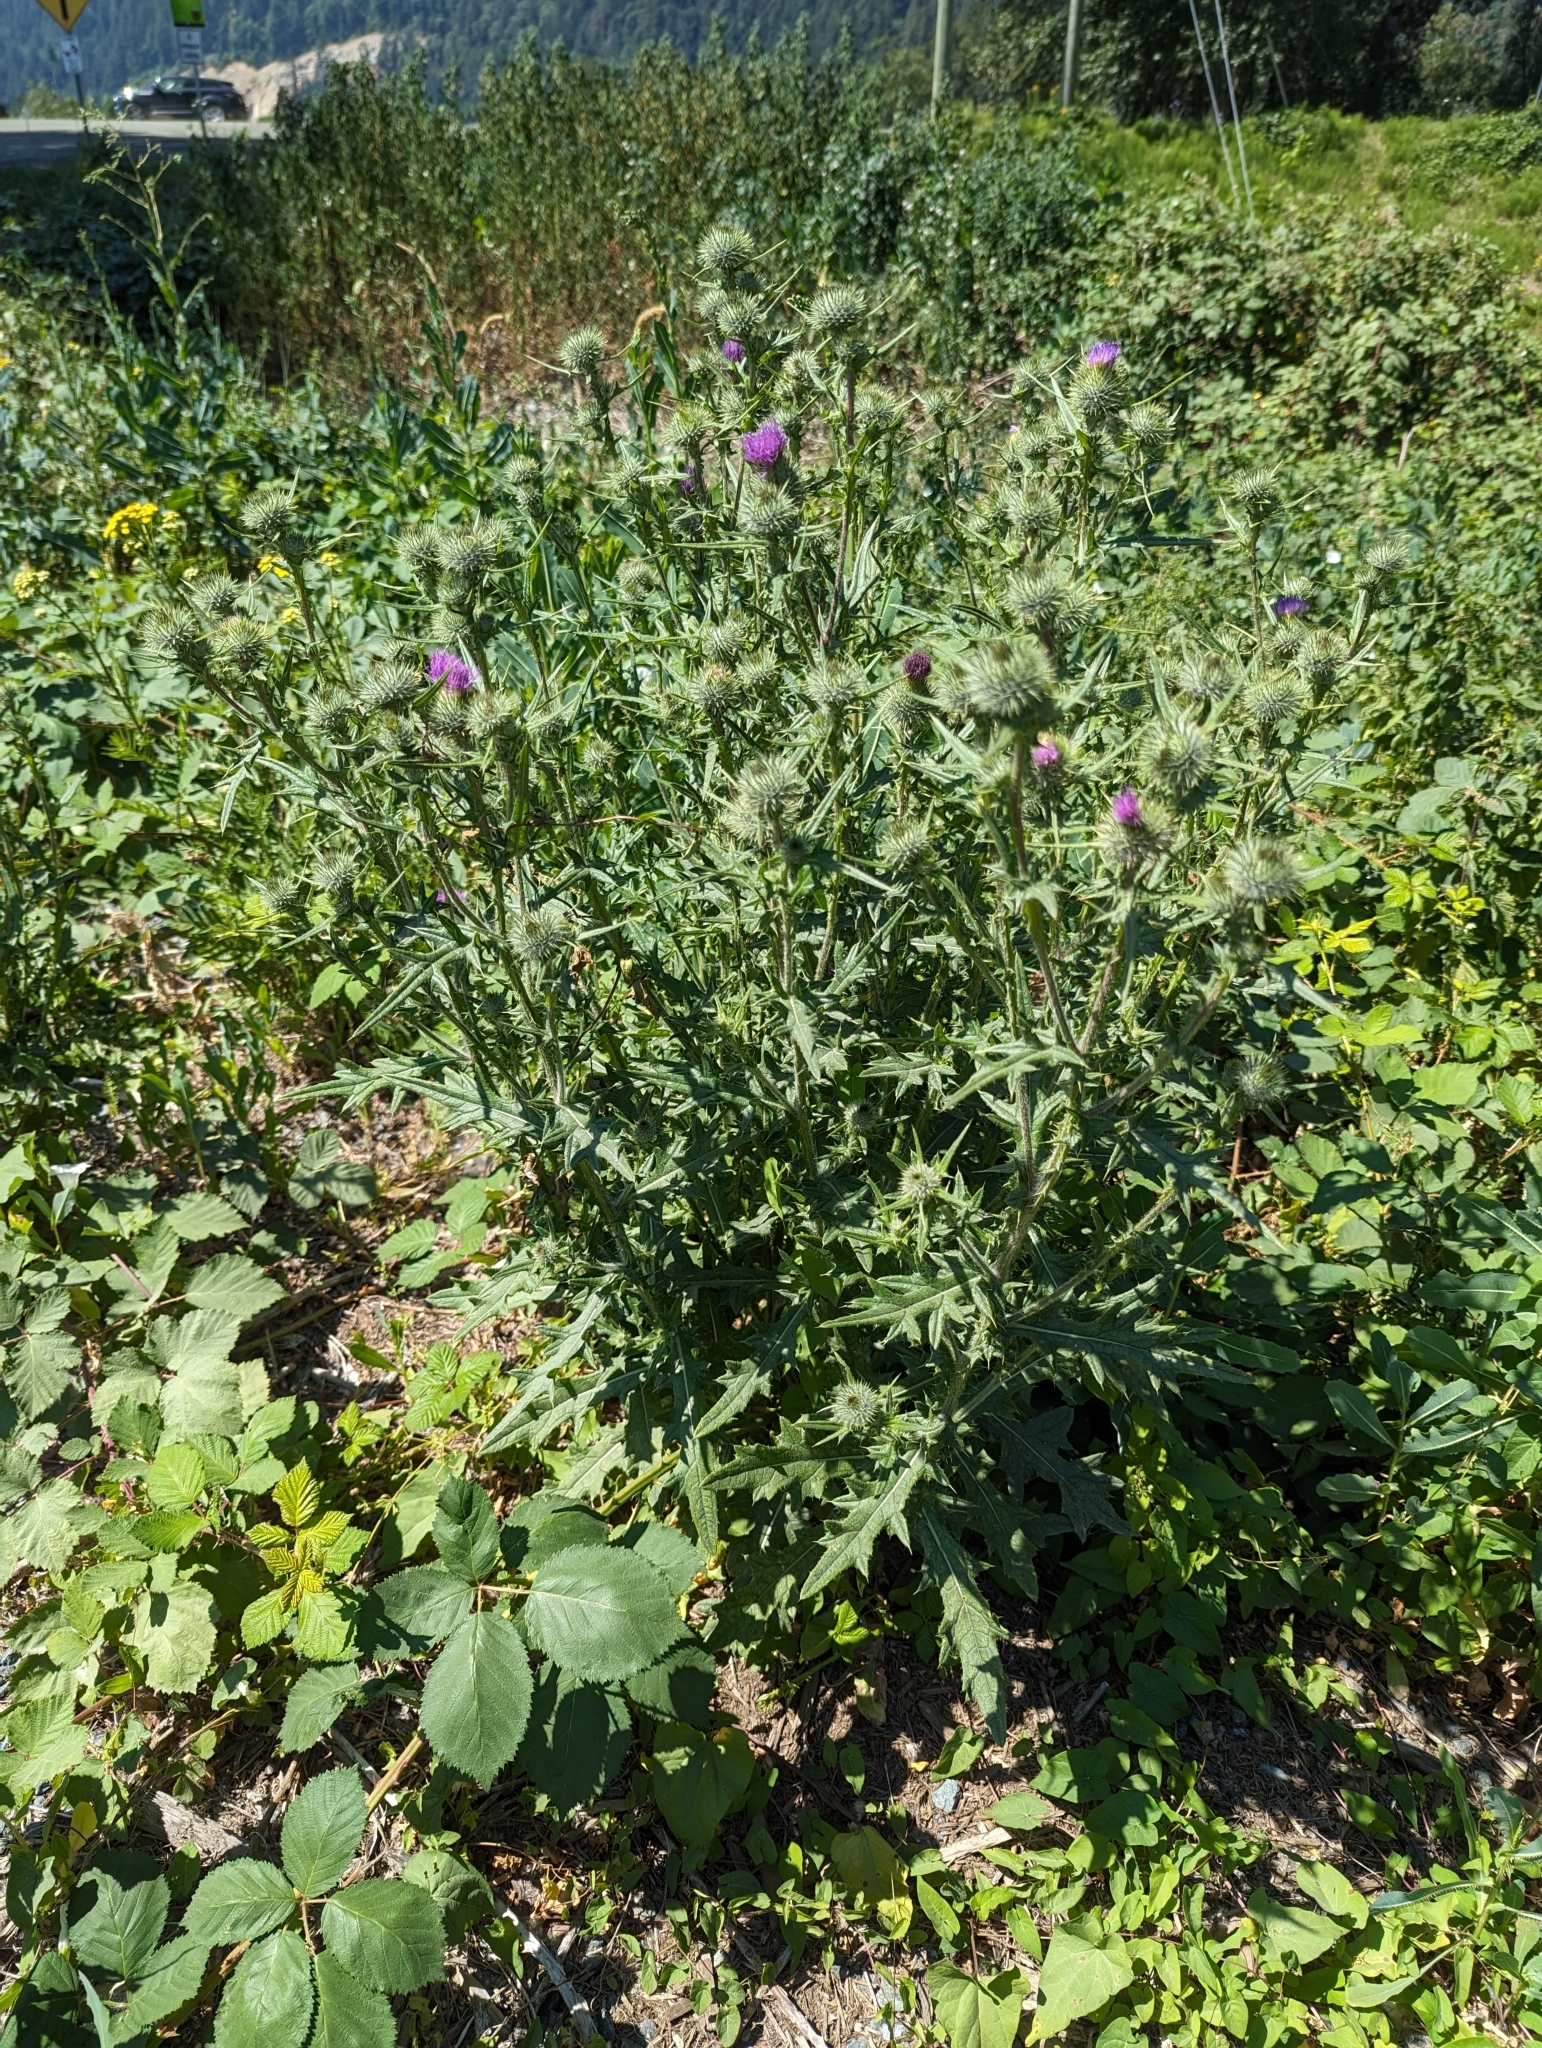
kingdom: Plantae
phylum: Tracheophyta
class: Magnoliopsida
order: Asterales
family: Asteraceae
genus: Cirsium
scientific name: Cirsium vulgare
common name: Bull thistle
